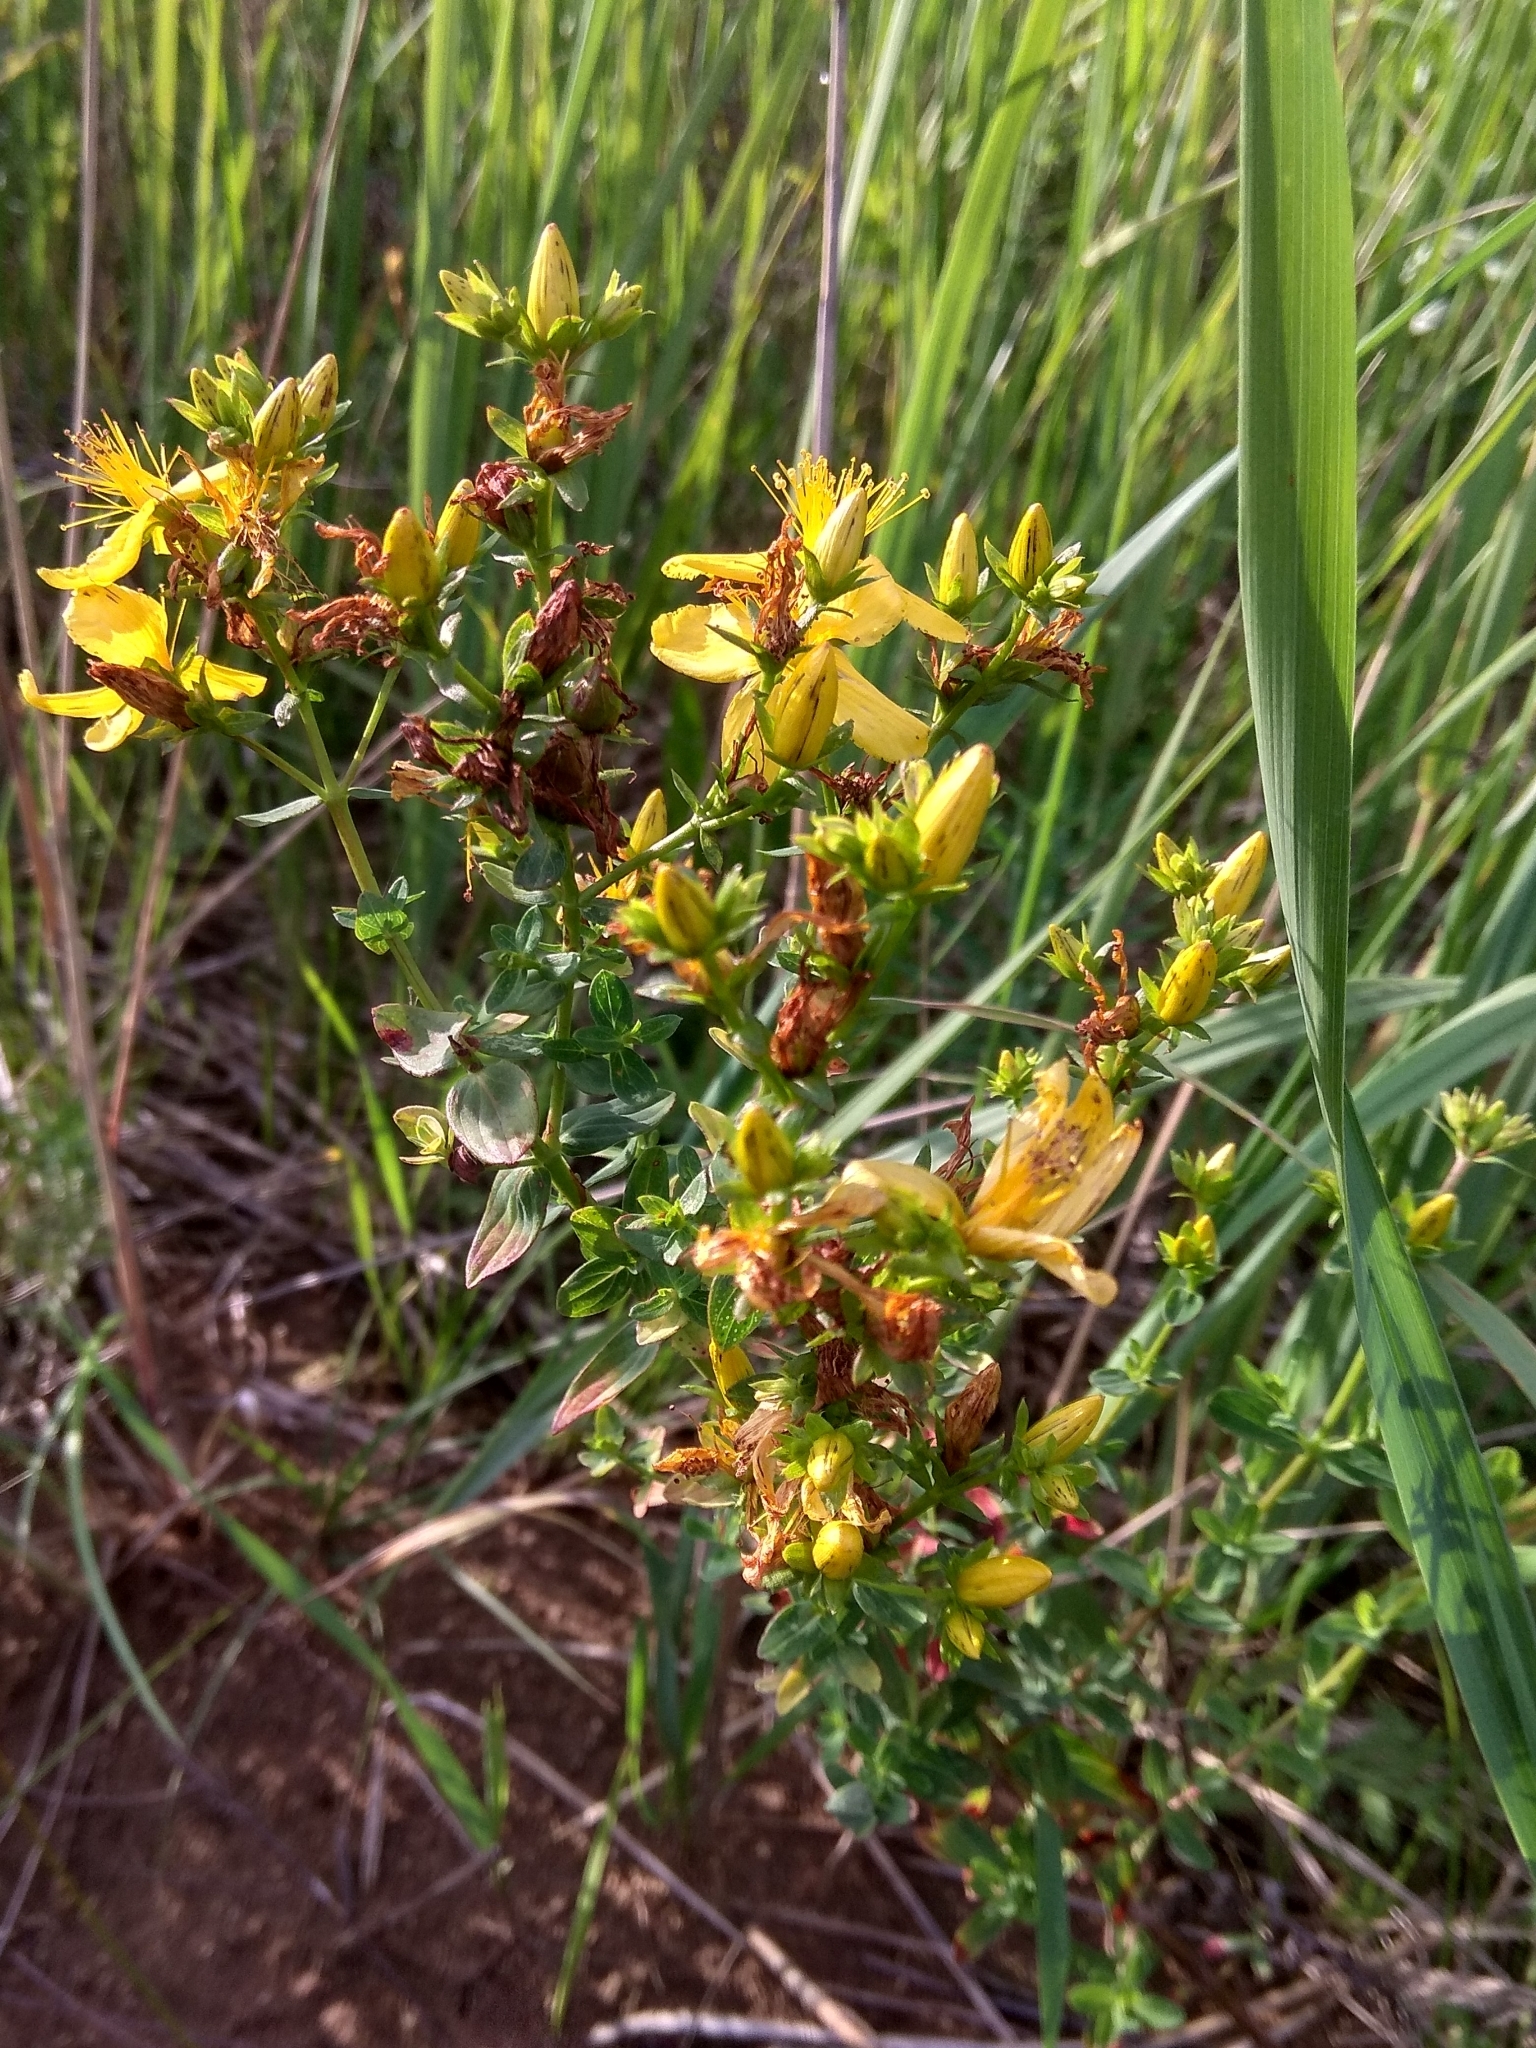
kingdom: Plantae
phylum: Tracheophyta
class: Magnoliopsida
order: Malpighiales
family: Hypericaceae
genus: Hypericum
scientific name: Hypericum perforatum
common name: Common st. johnswort
